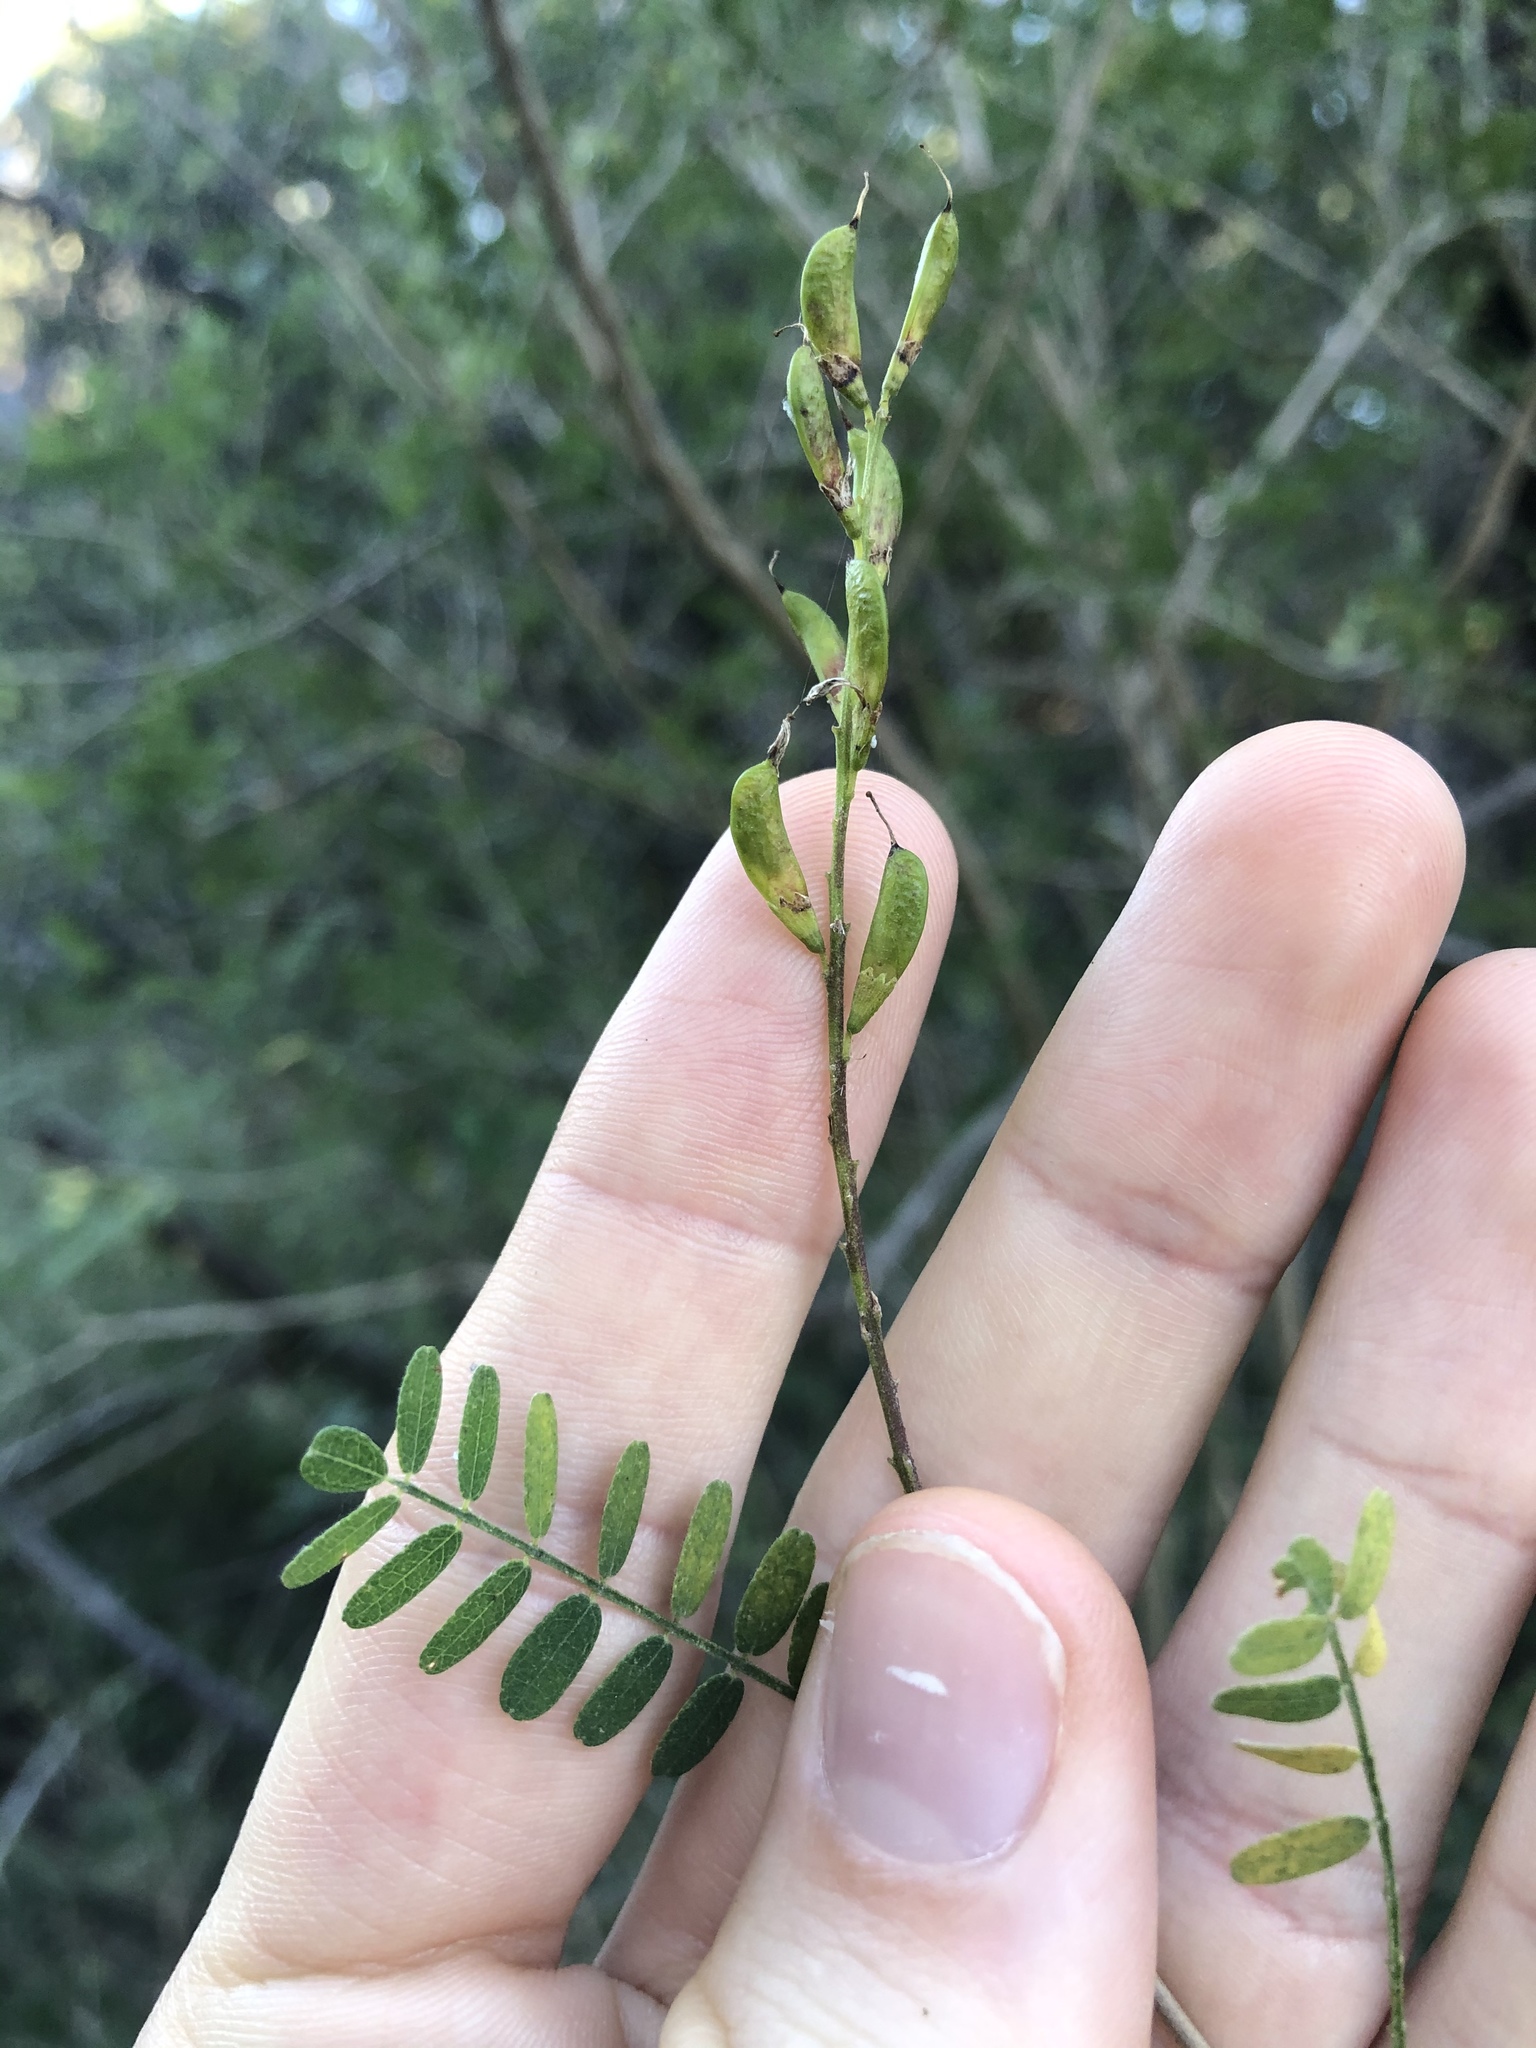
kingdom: Plantae
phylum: Tracheophyta
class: Magnoliopsida
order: Fabales
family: Fabaceae
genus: Eysenhardtia
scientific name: Eysenhardtia texana
